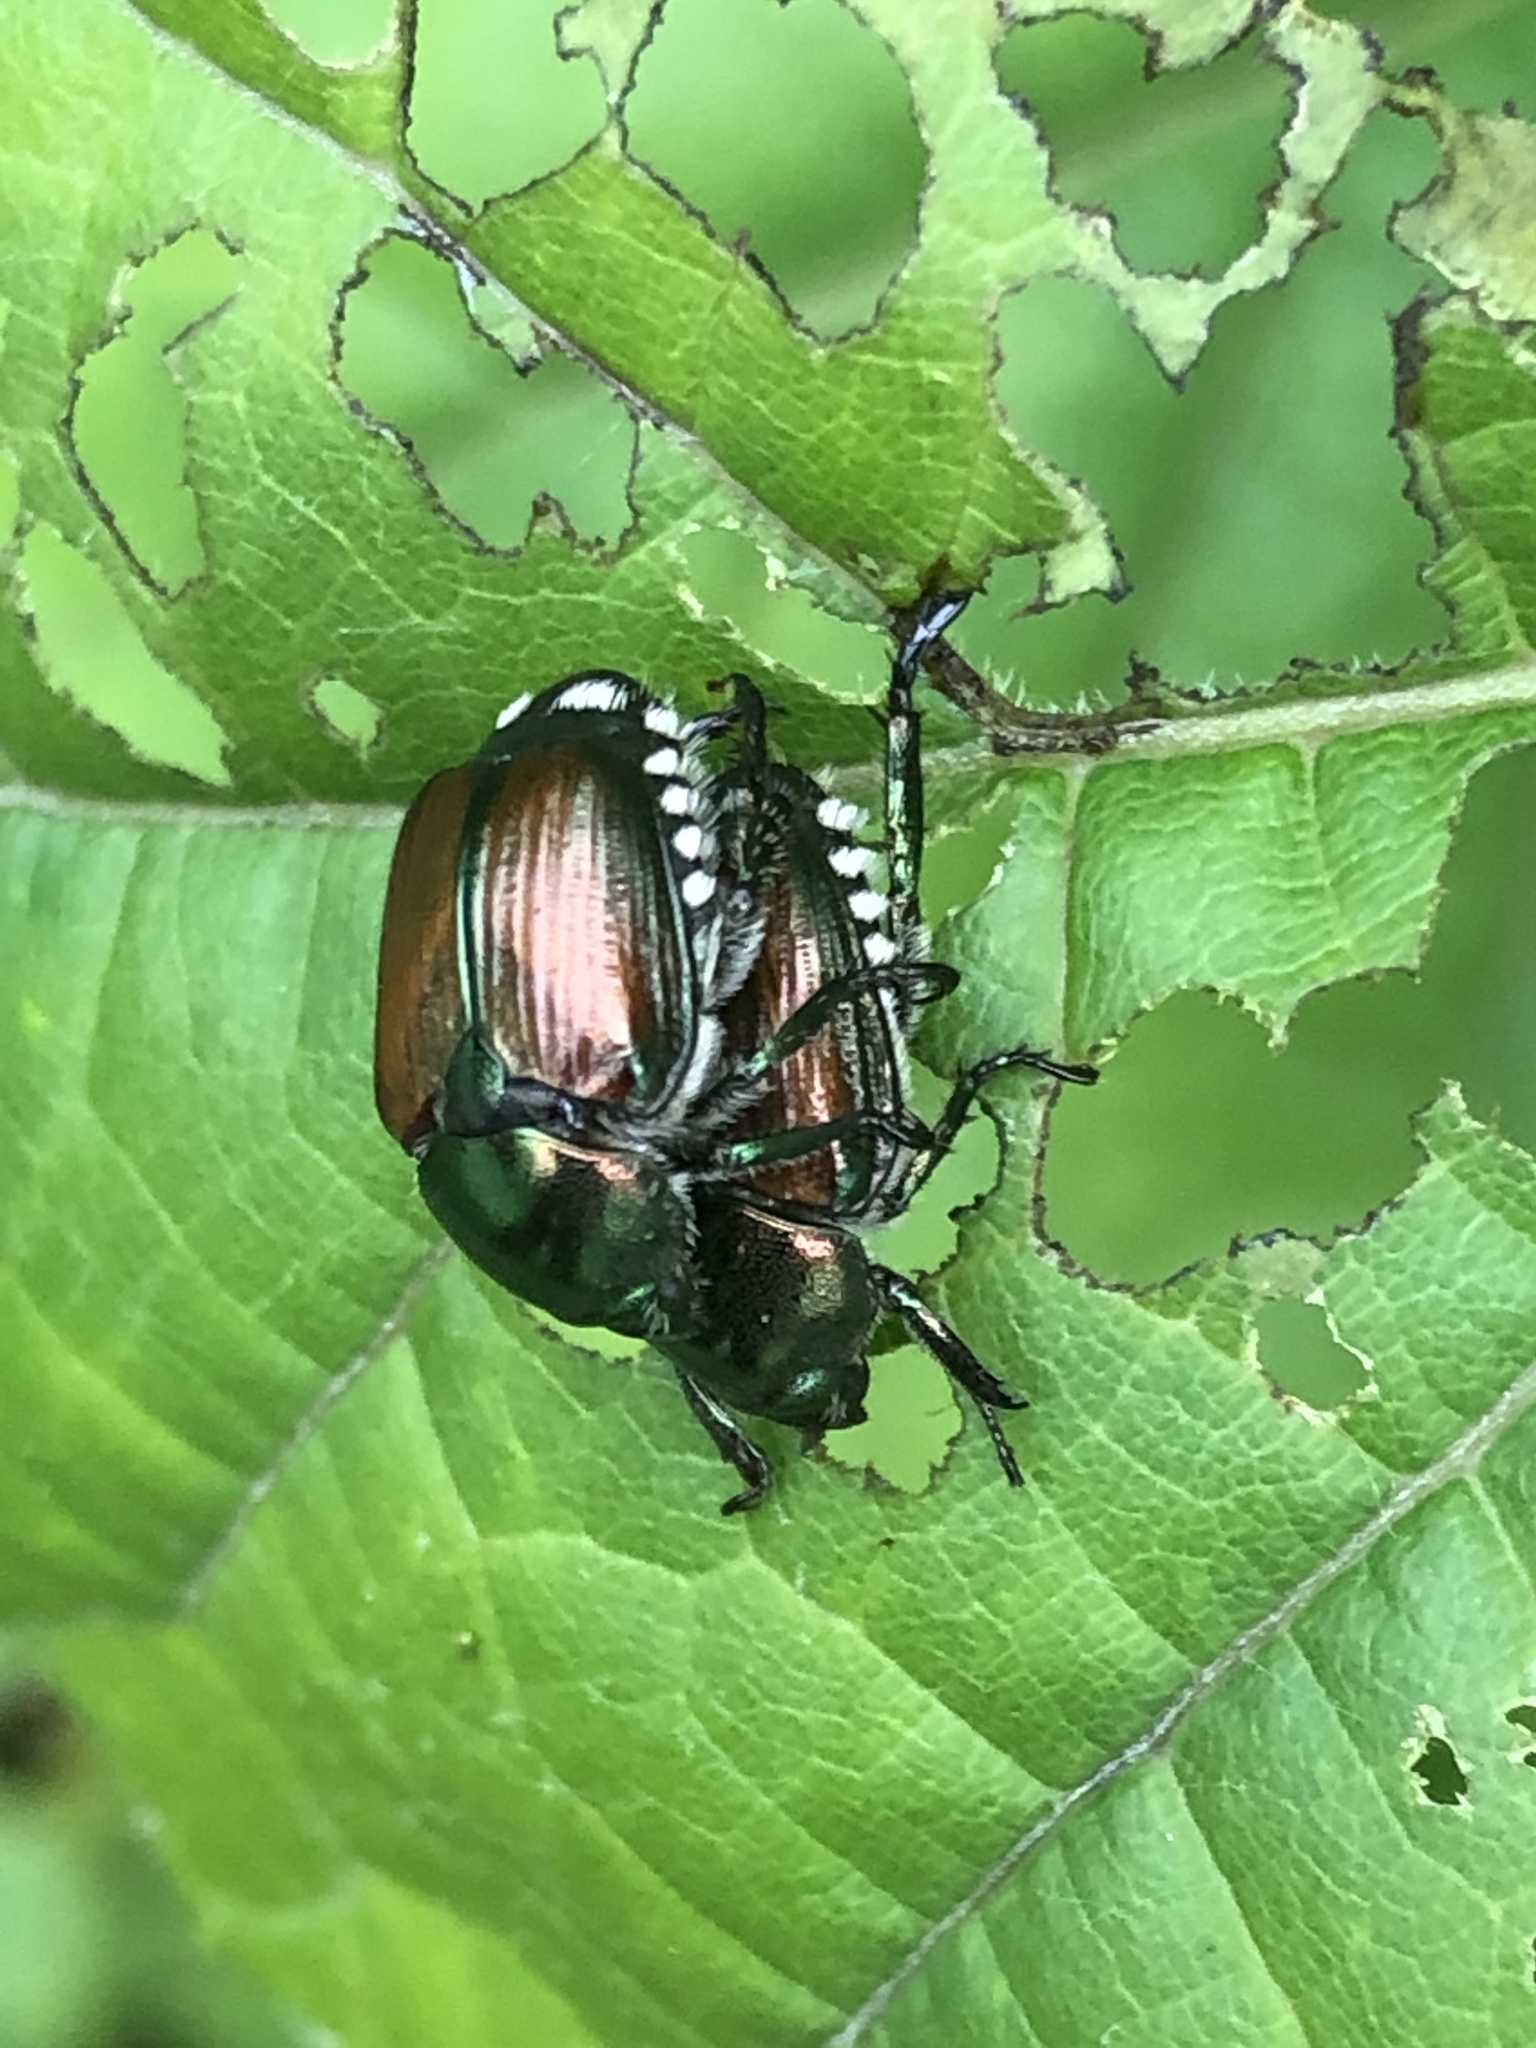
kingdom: Animalia
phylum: Arthropoda
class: Insecta
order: Coleoptera
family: Scarabaeidae
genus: Popillia
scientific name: Popillia japonica
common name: Japanese beetle
